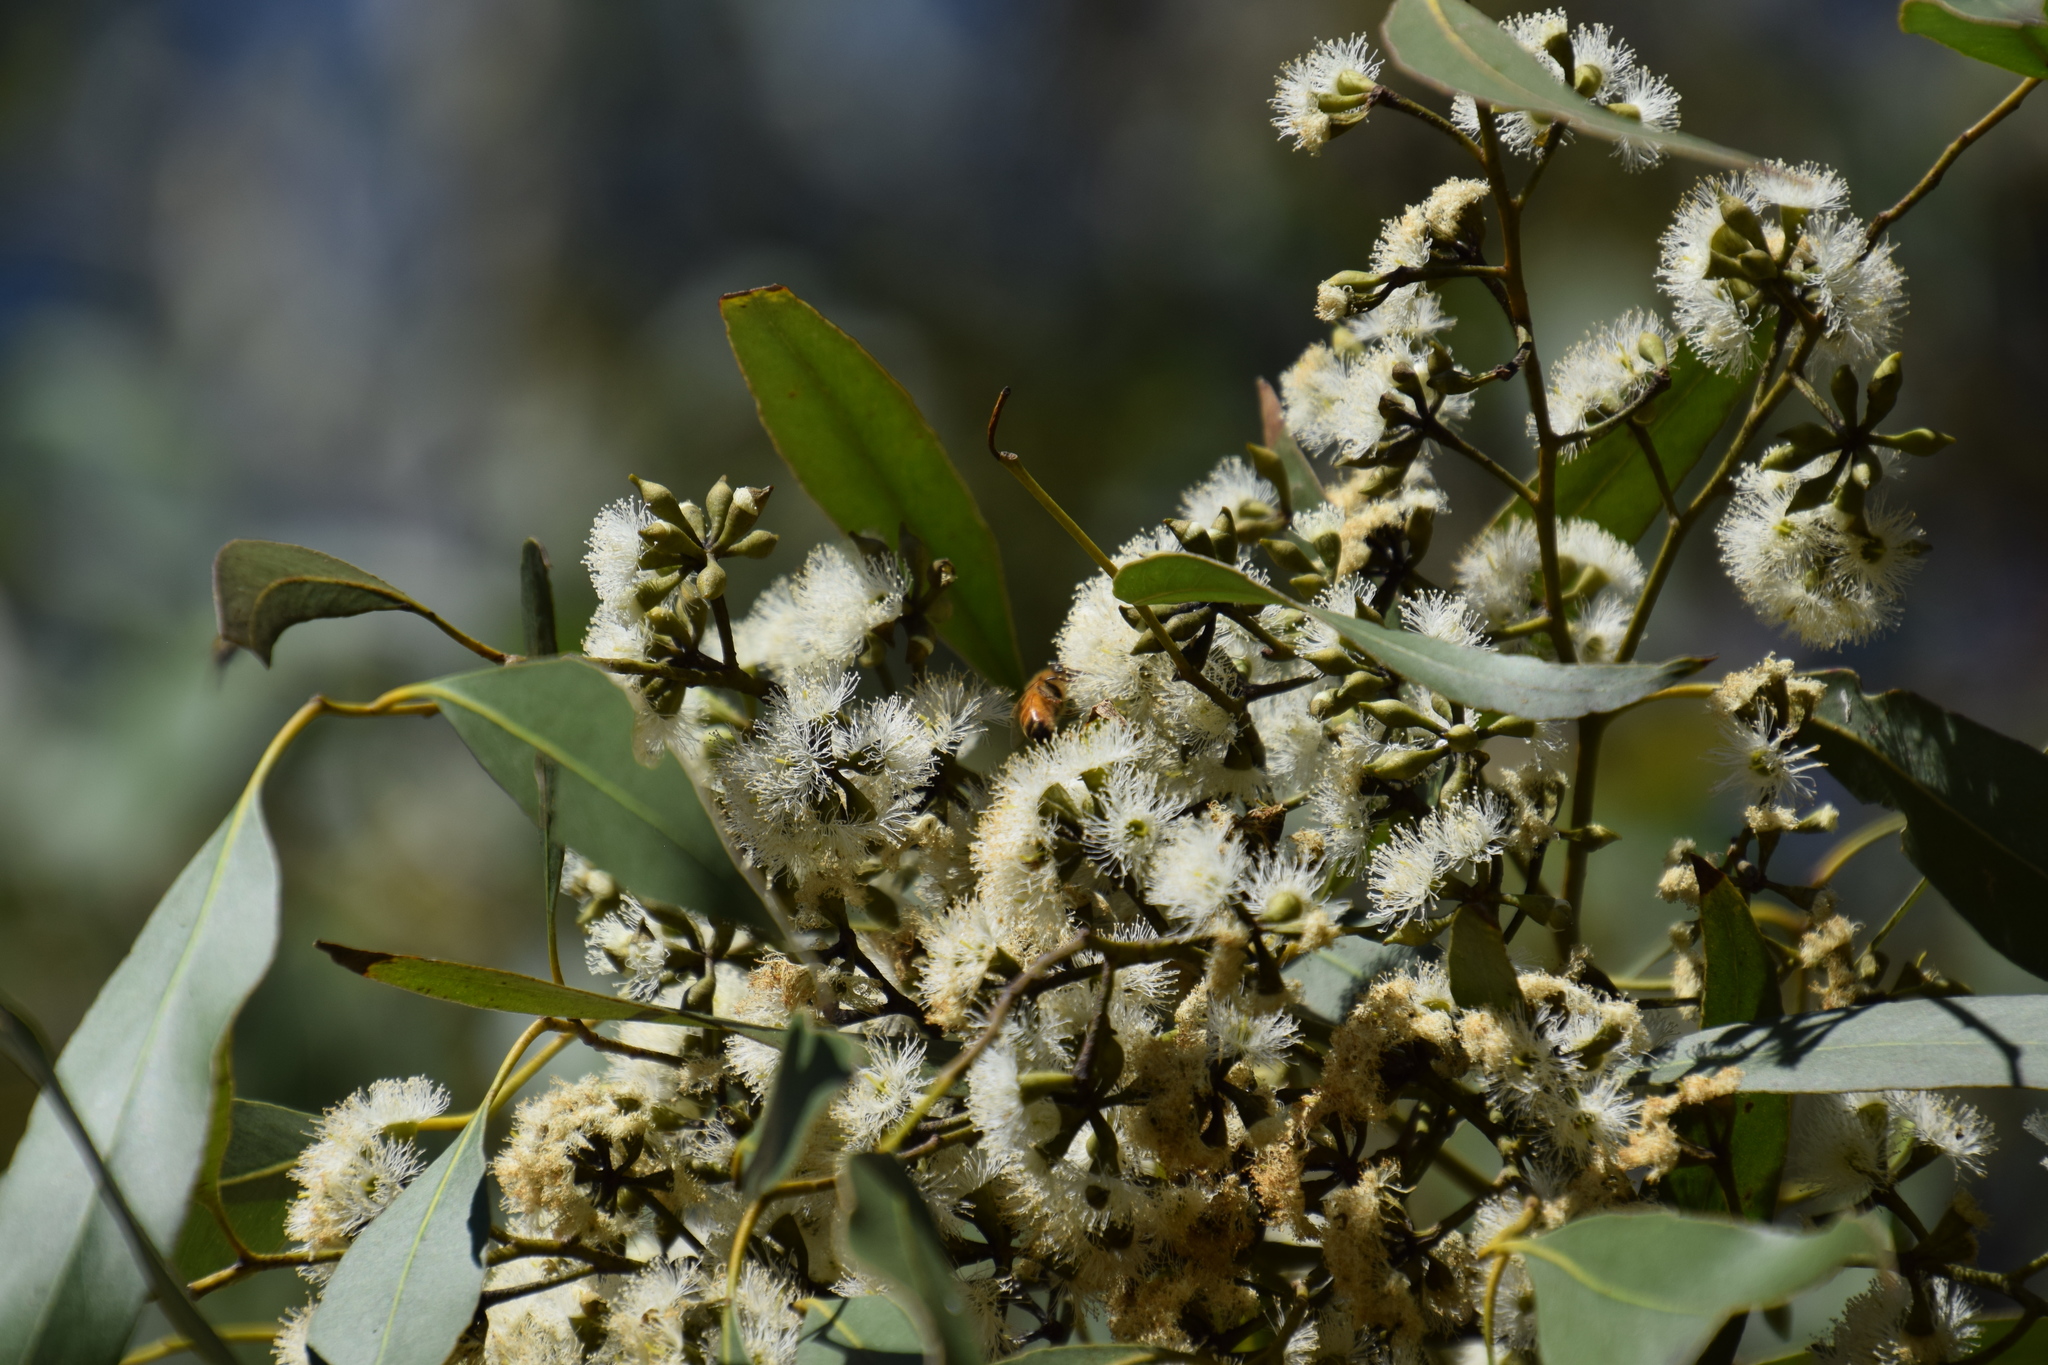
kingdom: Animalia
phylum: Arthropoda
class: Insecta
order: Hymenoptera
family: Apidae
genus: Apis
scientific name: Apis mellifera
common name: Honey bee
